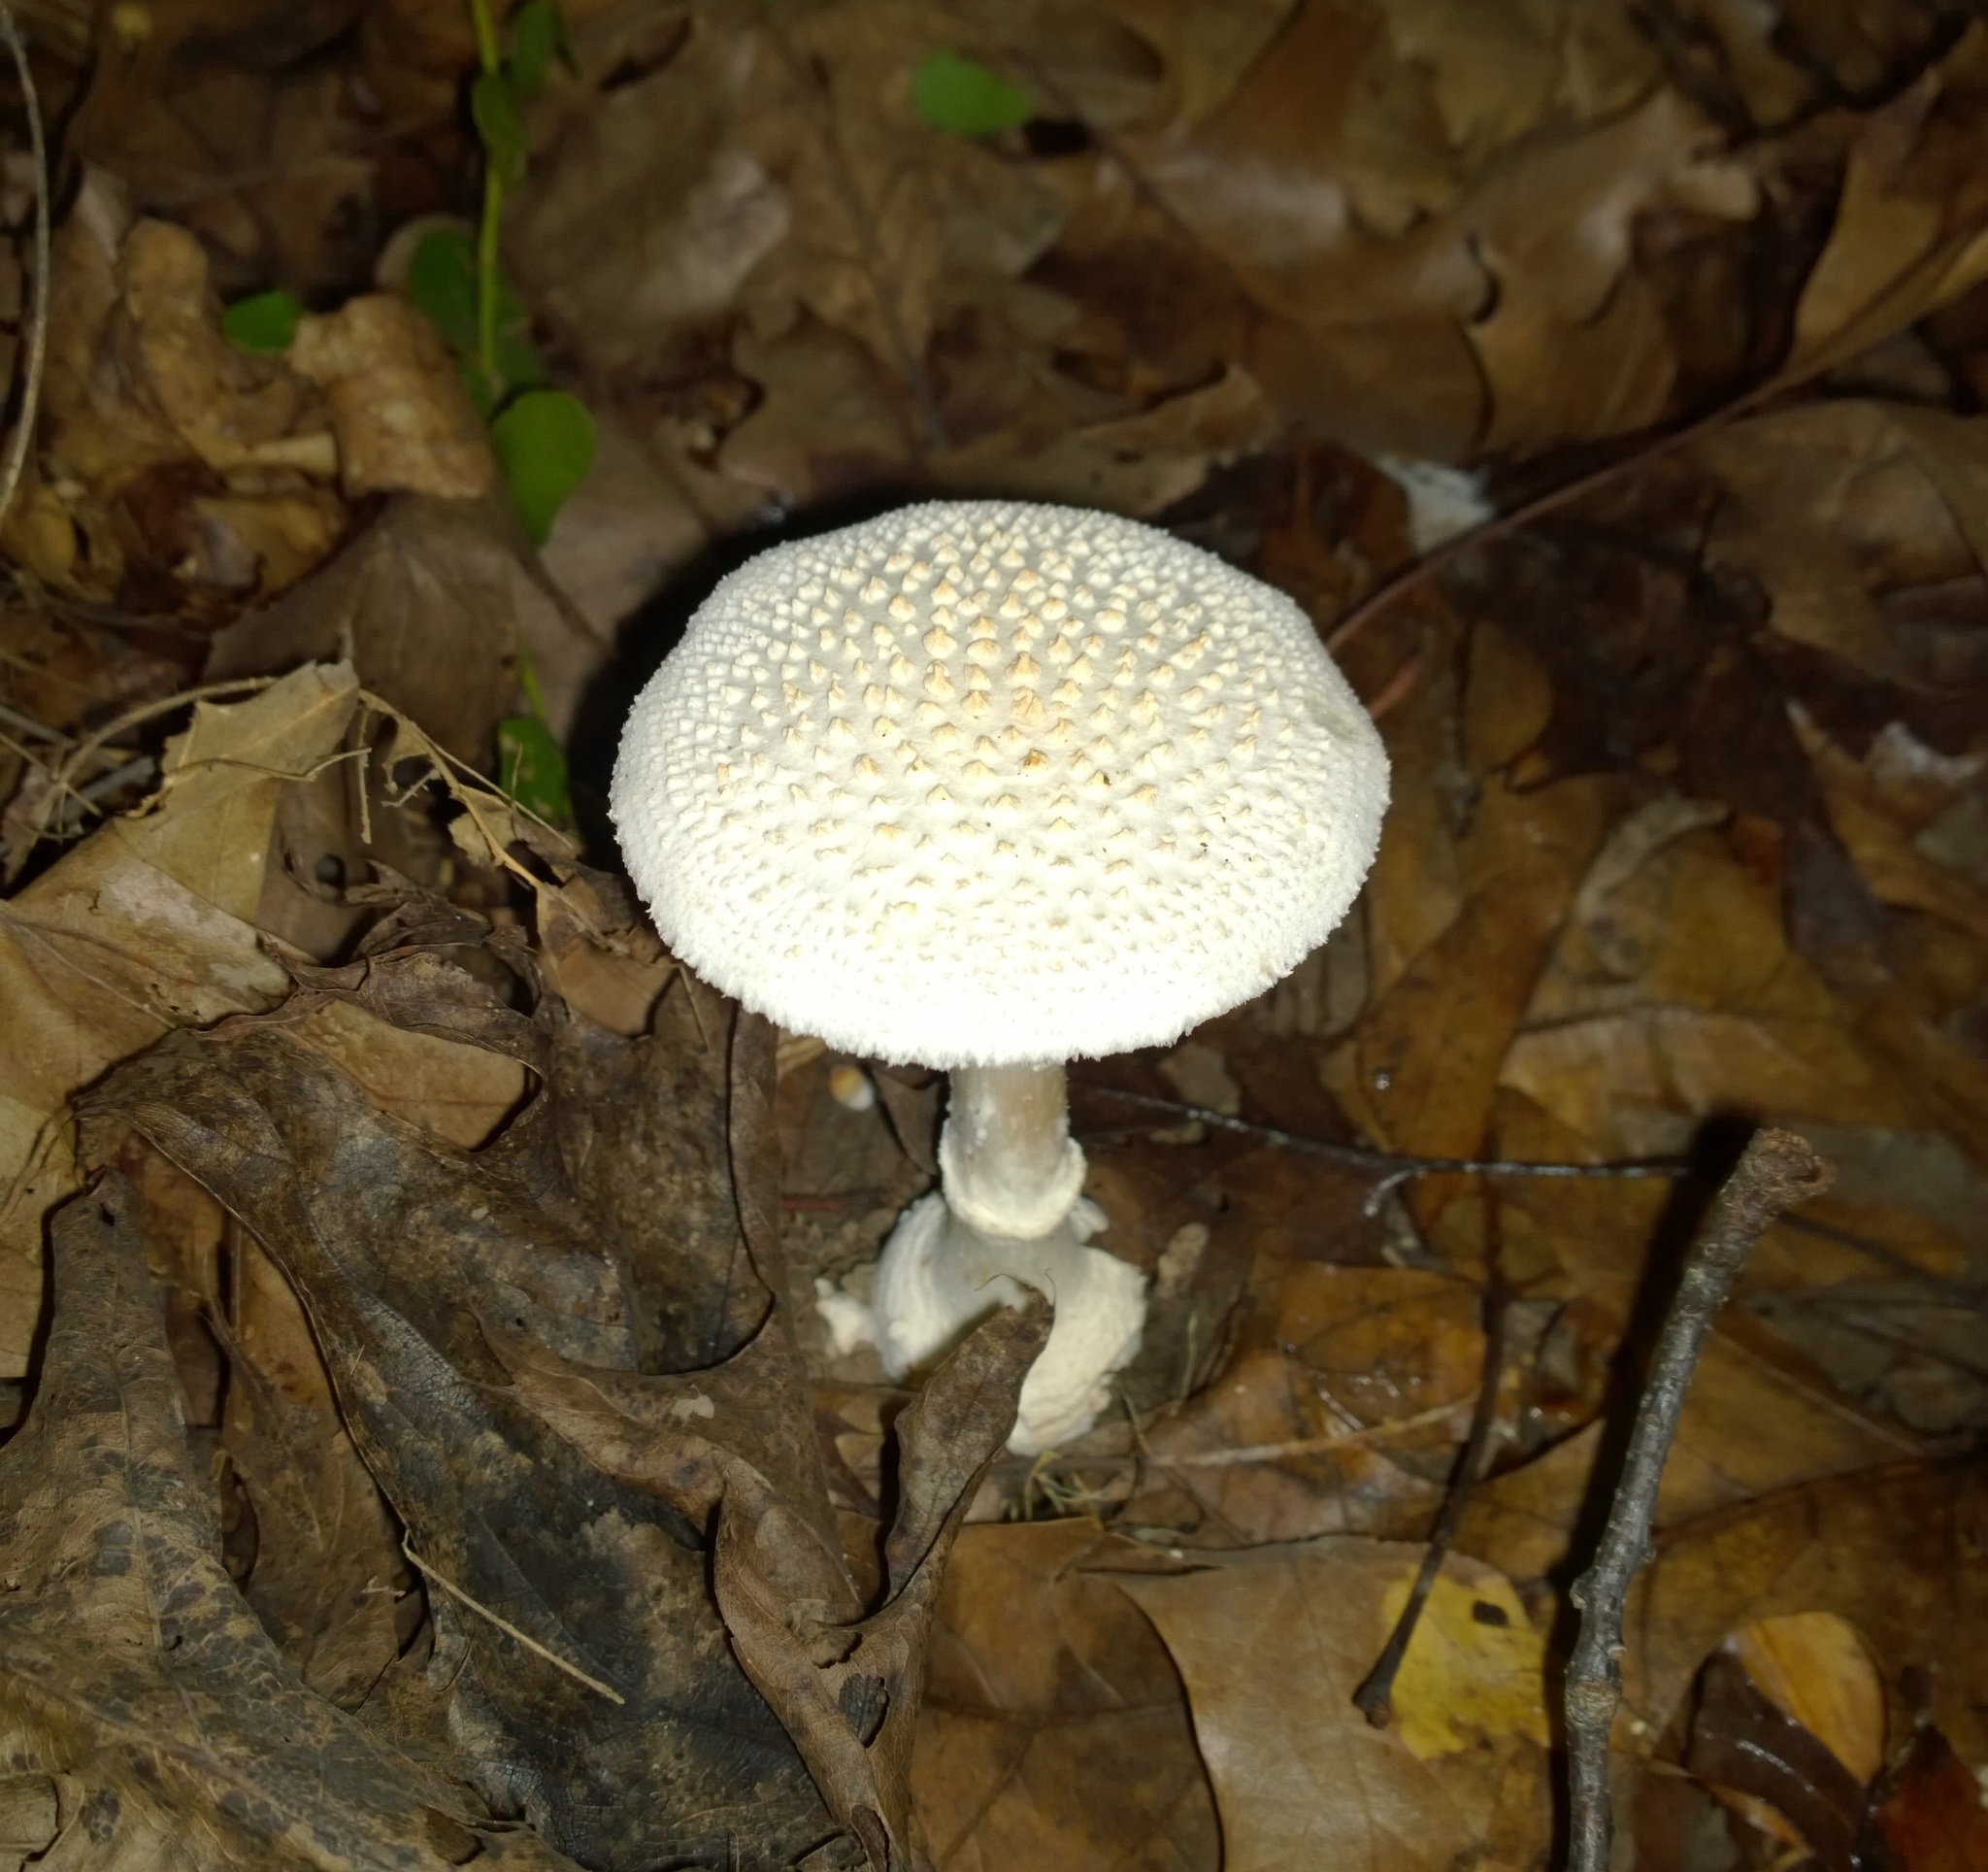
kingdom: Fungi
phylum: Basidiomycota
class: Agaricomycetes
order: Agaricales
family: Amanitaceae
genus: Amanita
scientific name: Amanita abrupta
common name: American abrupt-bulbed lepidella
